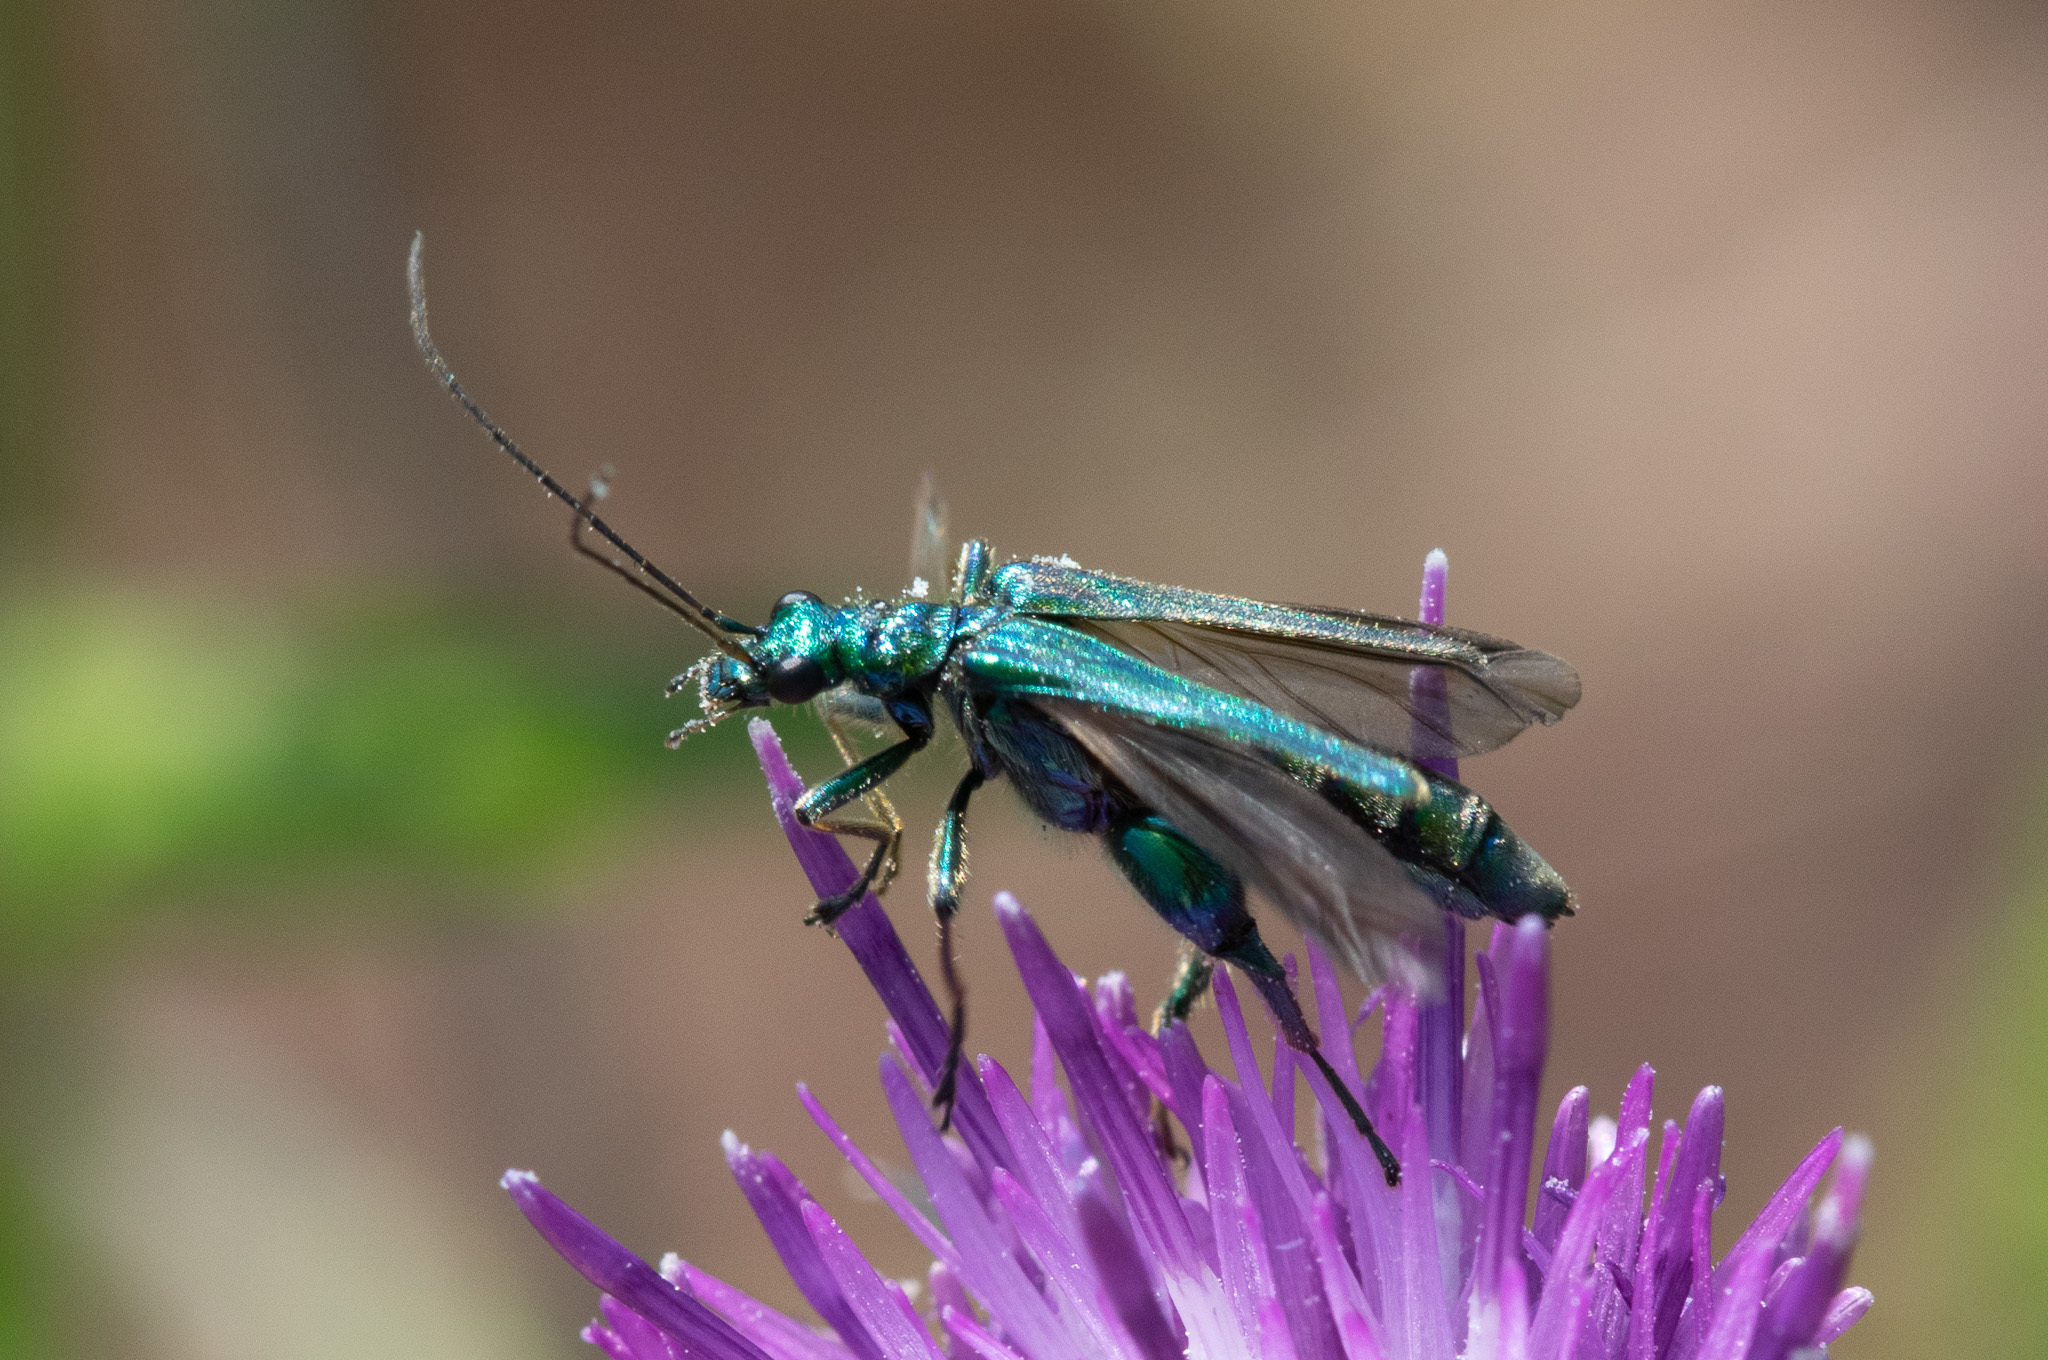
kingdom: Animalia
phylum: Arthropoda
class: Insecta
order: Coleoptera
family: Oedemeridae
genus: Oedemera
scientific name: Oedemera nobilis
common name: Swollen-thighed beetle
